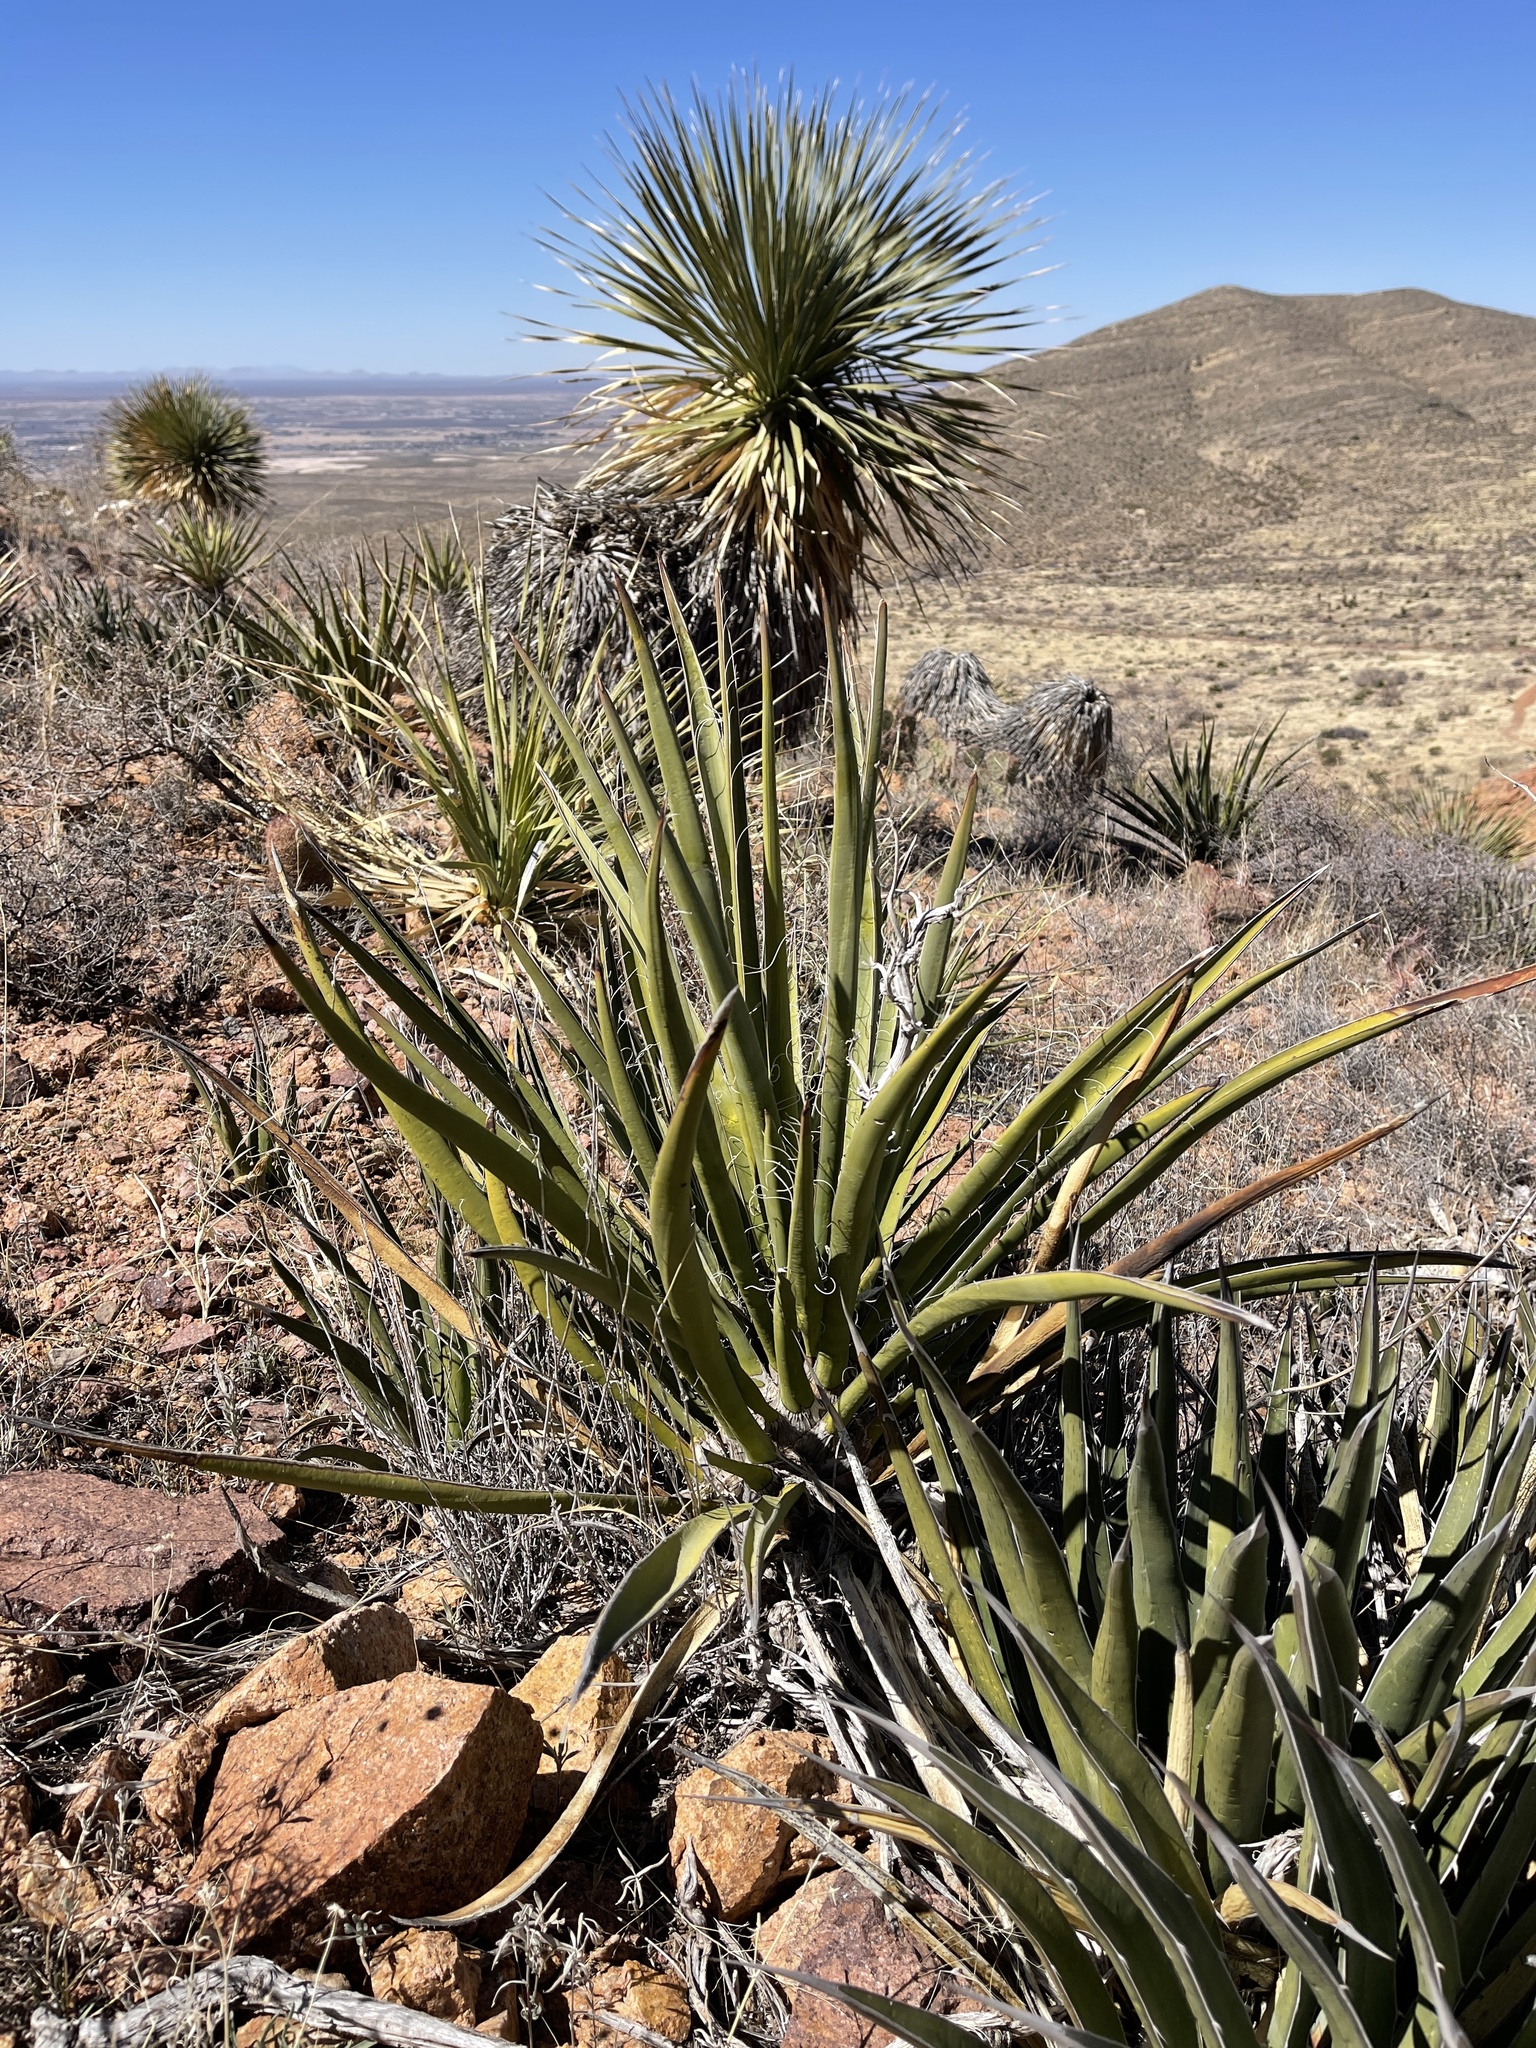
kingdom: Plantae
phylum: Tracheophyta
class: Liliopsida
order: Asparagales
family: Asparagaceae
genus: Agave
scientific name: Agave lechuguilla
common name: Lecheguilla agave
